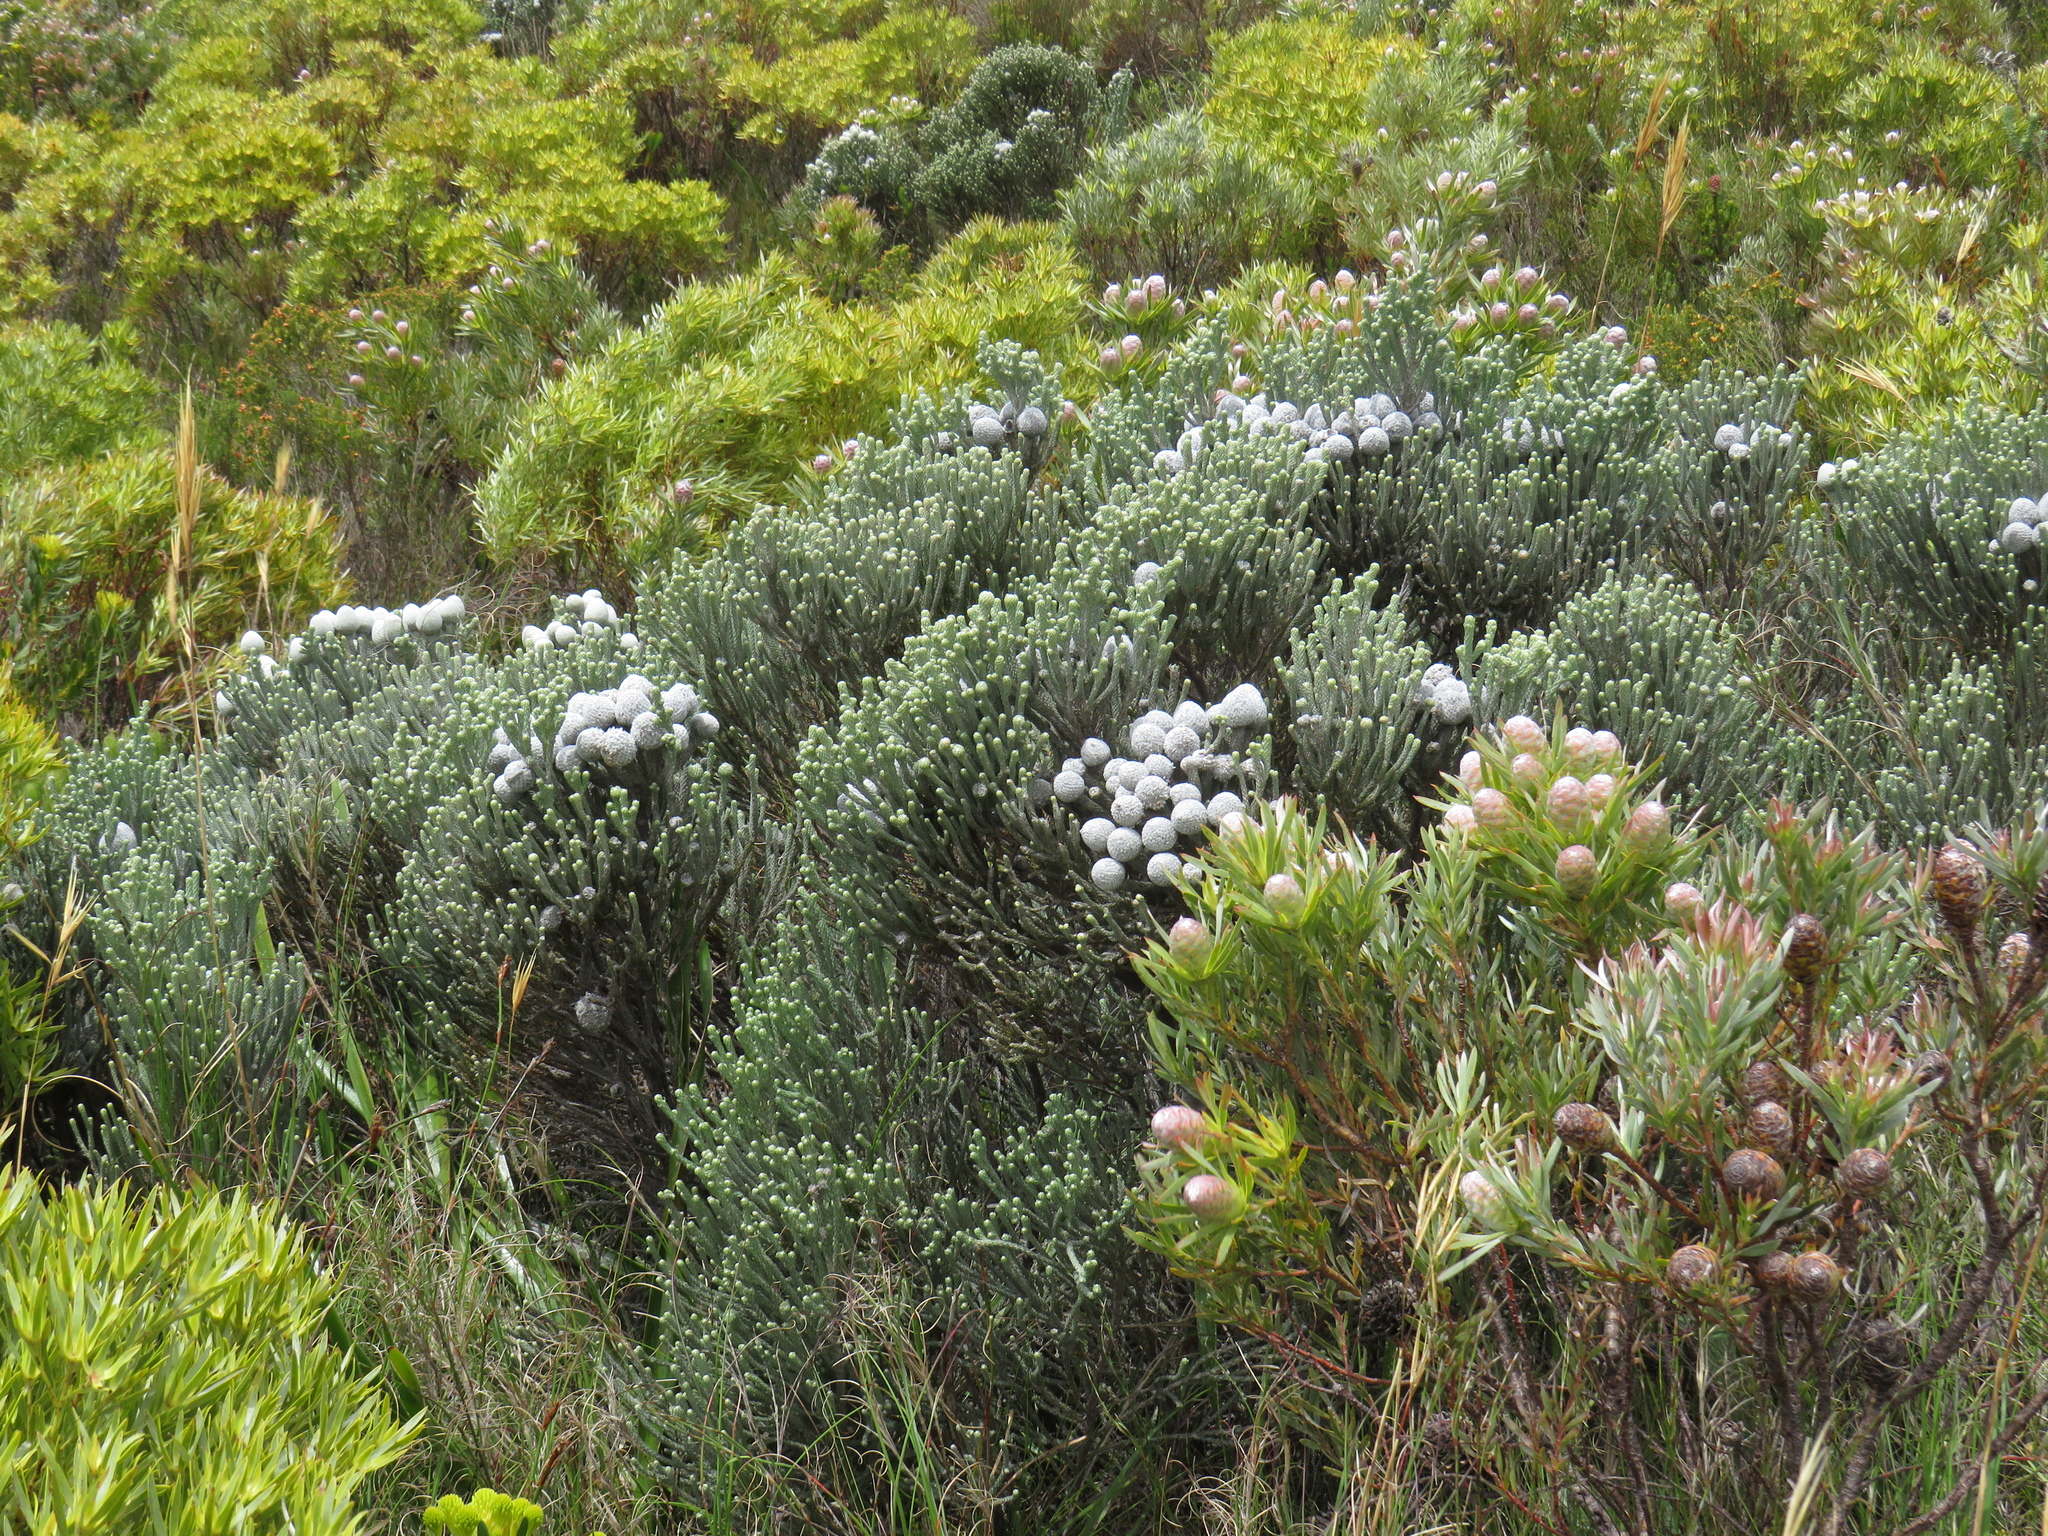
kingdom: Plantae
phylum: Tracheophyta
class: Magnoliopsida
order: Bruniales
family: Bruniaceae
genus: Brunia
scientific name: Brunia laevis
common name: Silver brunia
